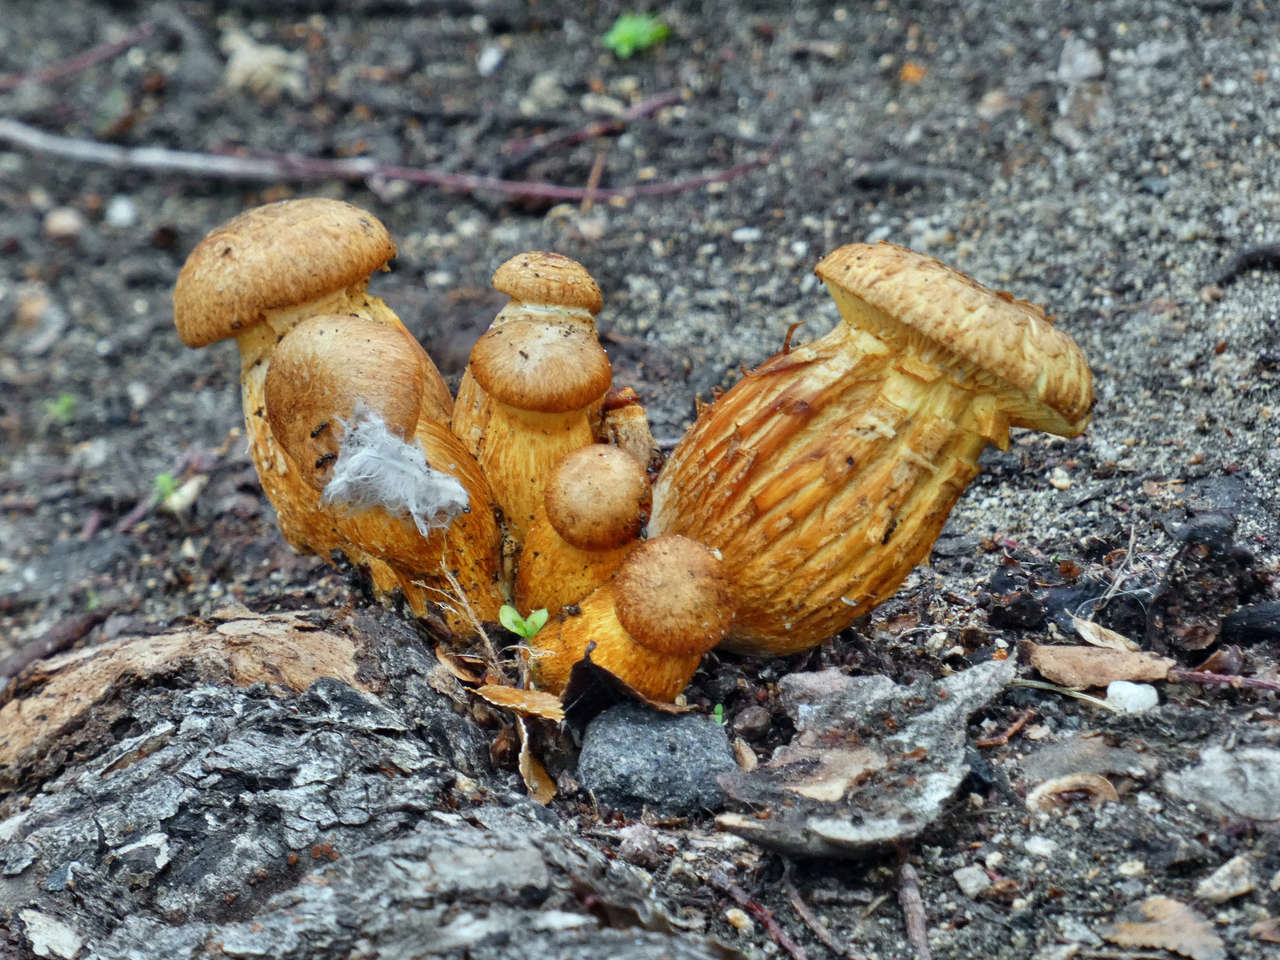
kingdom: Fungi
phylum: Basidiomycota
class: Agaricomycetes
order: Agaricales
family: Hymenogastraceae
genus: Gymnopilus
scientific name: Gymnopilus junonius
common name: Spectacular rustgill
